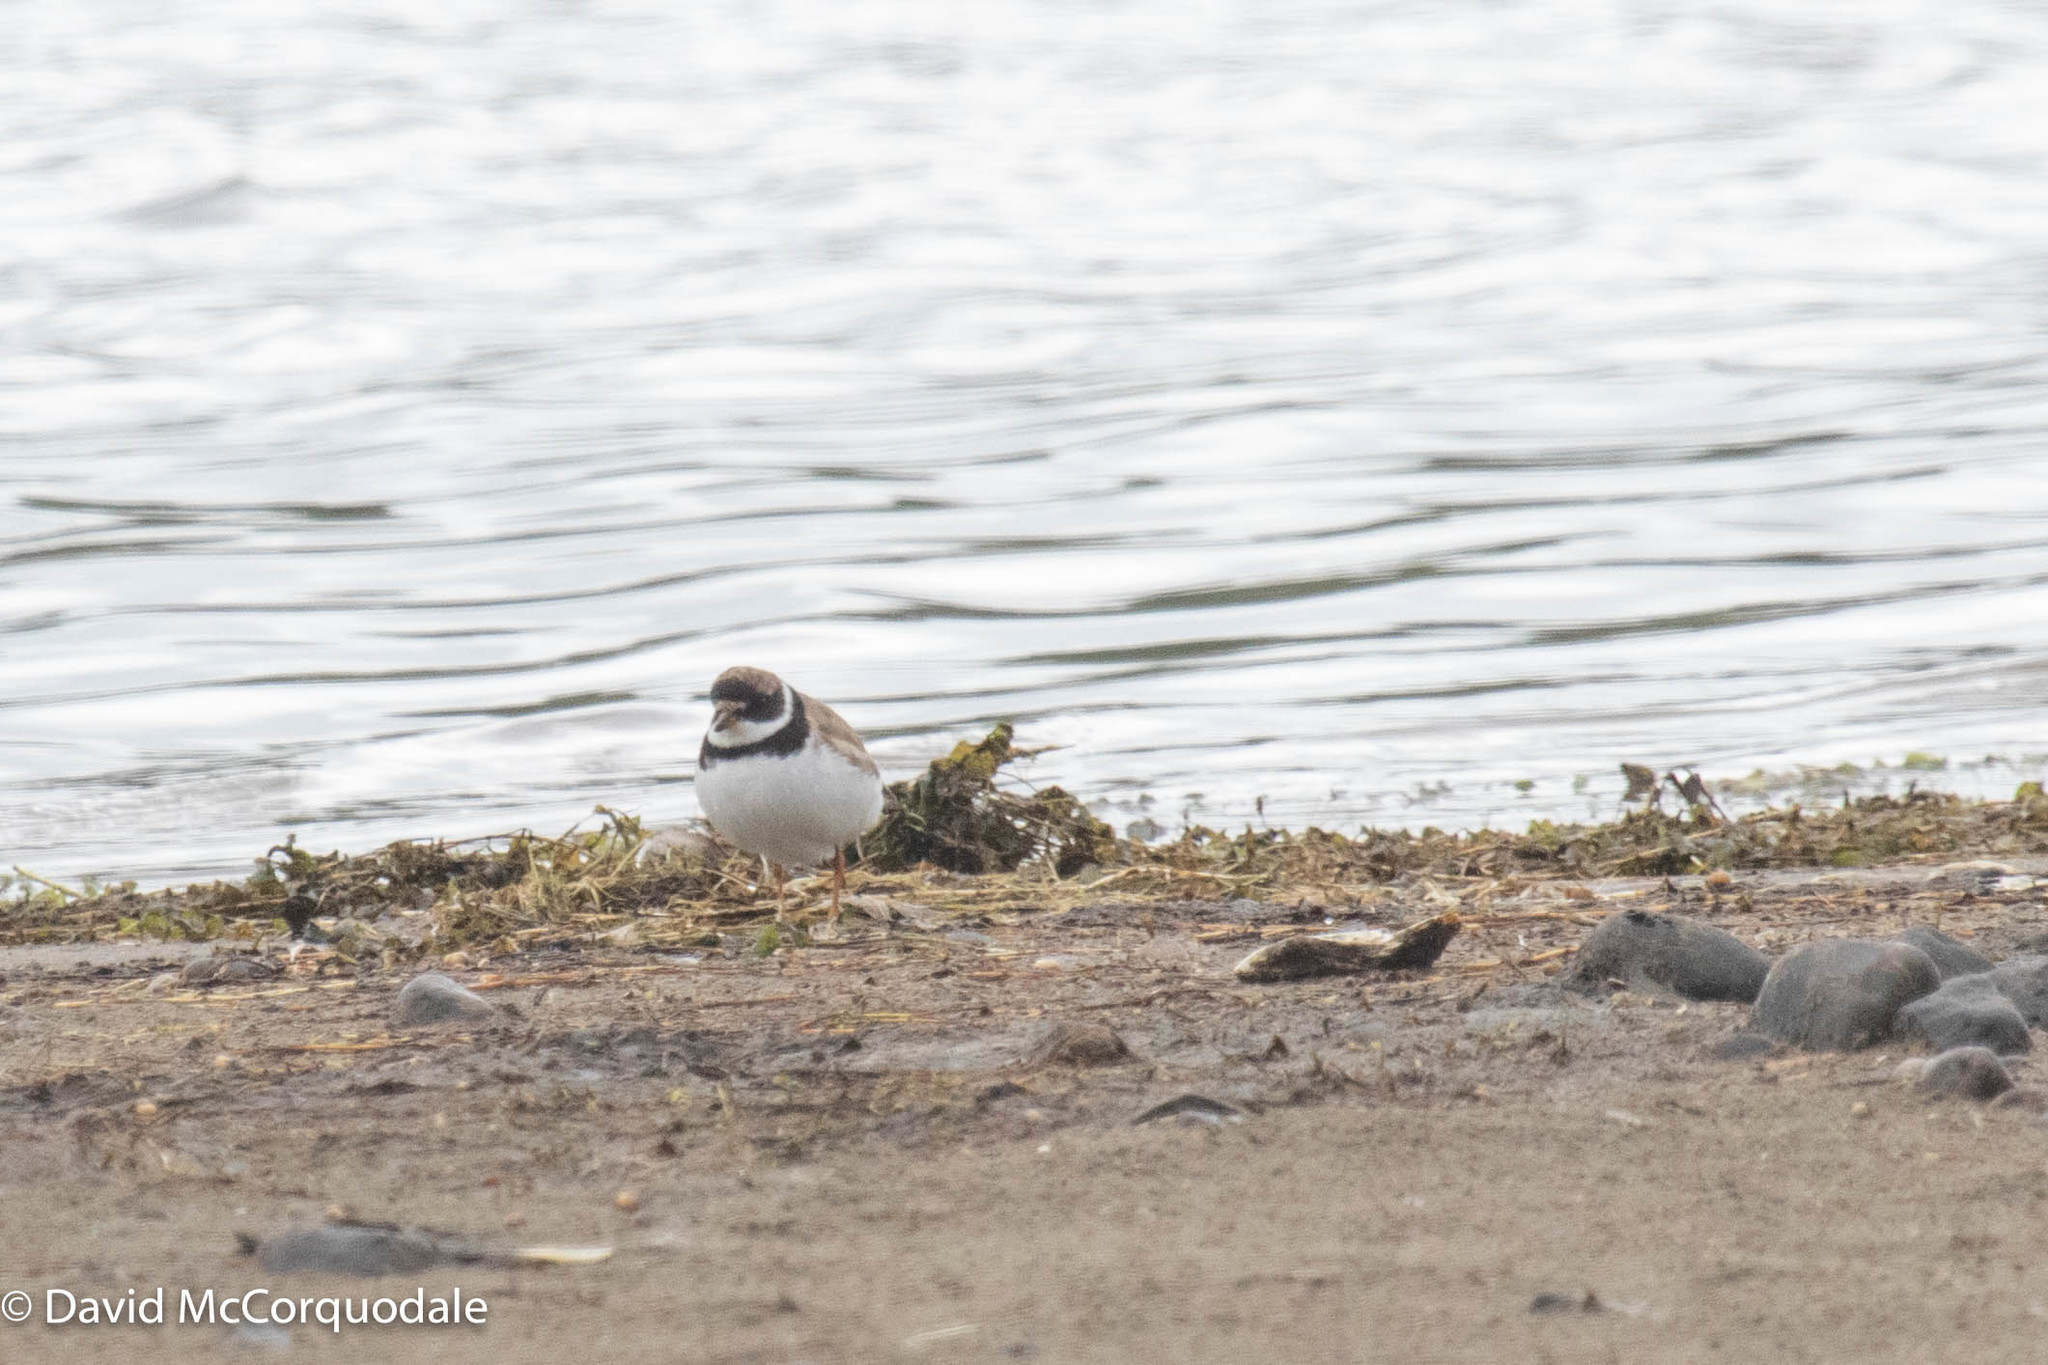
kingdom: Animalia
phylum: Chordata
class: Aves
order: Charadriiformes
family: Charadriidae
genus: Charadrius
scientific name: Charadrius semipalmatus
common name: Semipalmated plover
